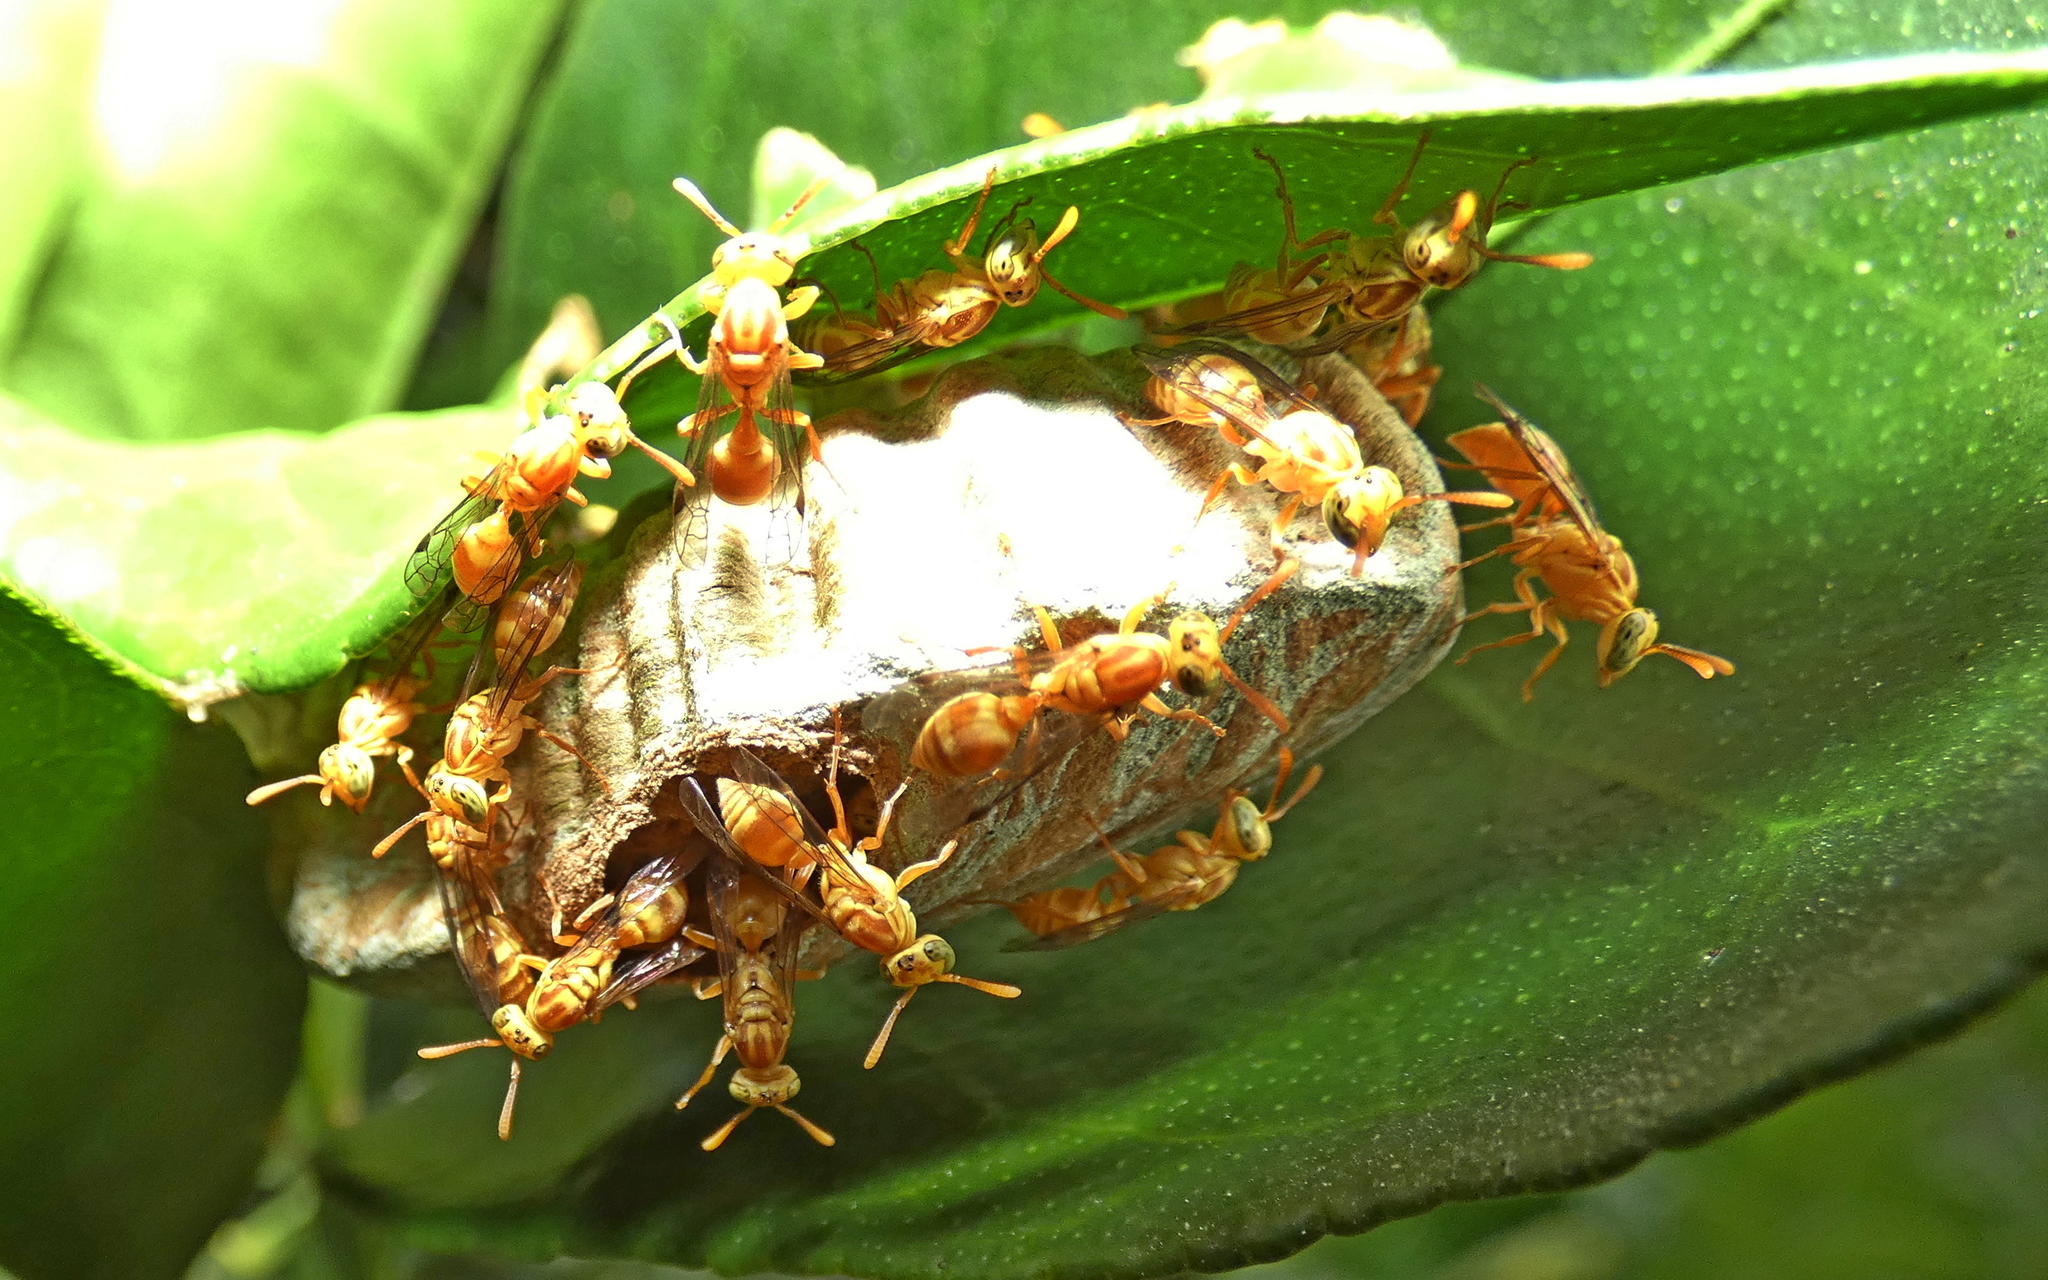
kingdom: Animalia
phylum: Arthropoda
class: Insecta
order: Hymenoptera
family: Vespidae
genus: Protopolybia
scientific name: Protopolybia potiguara
